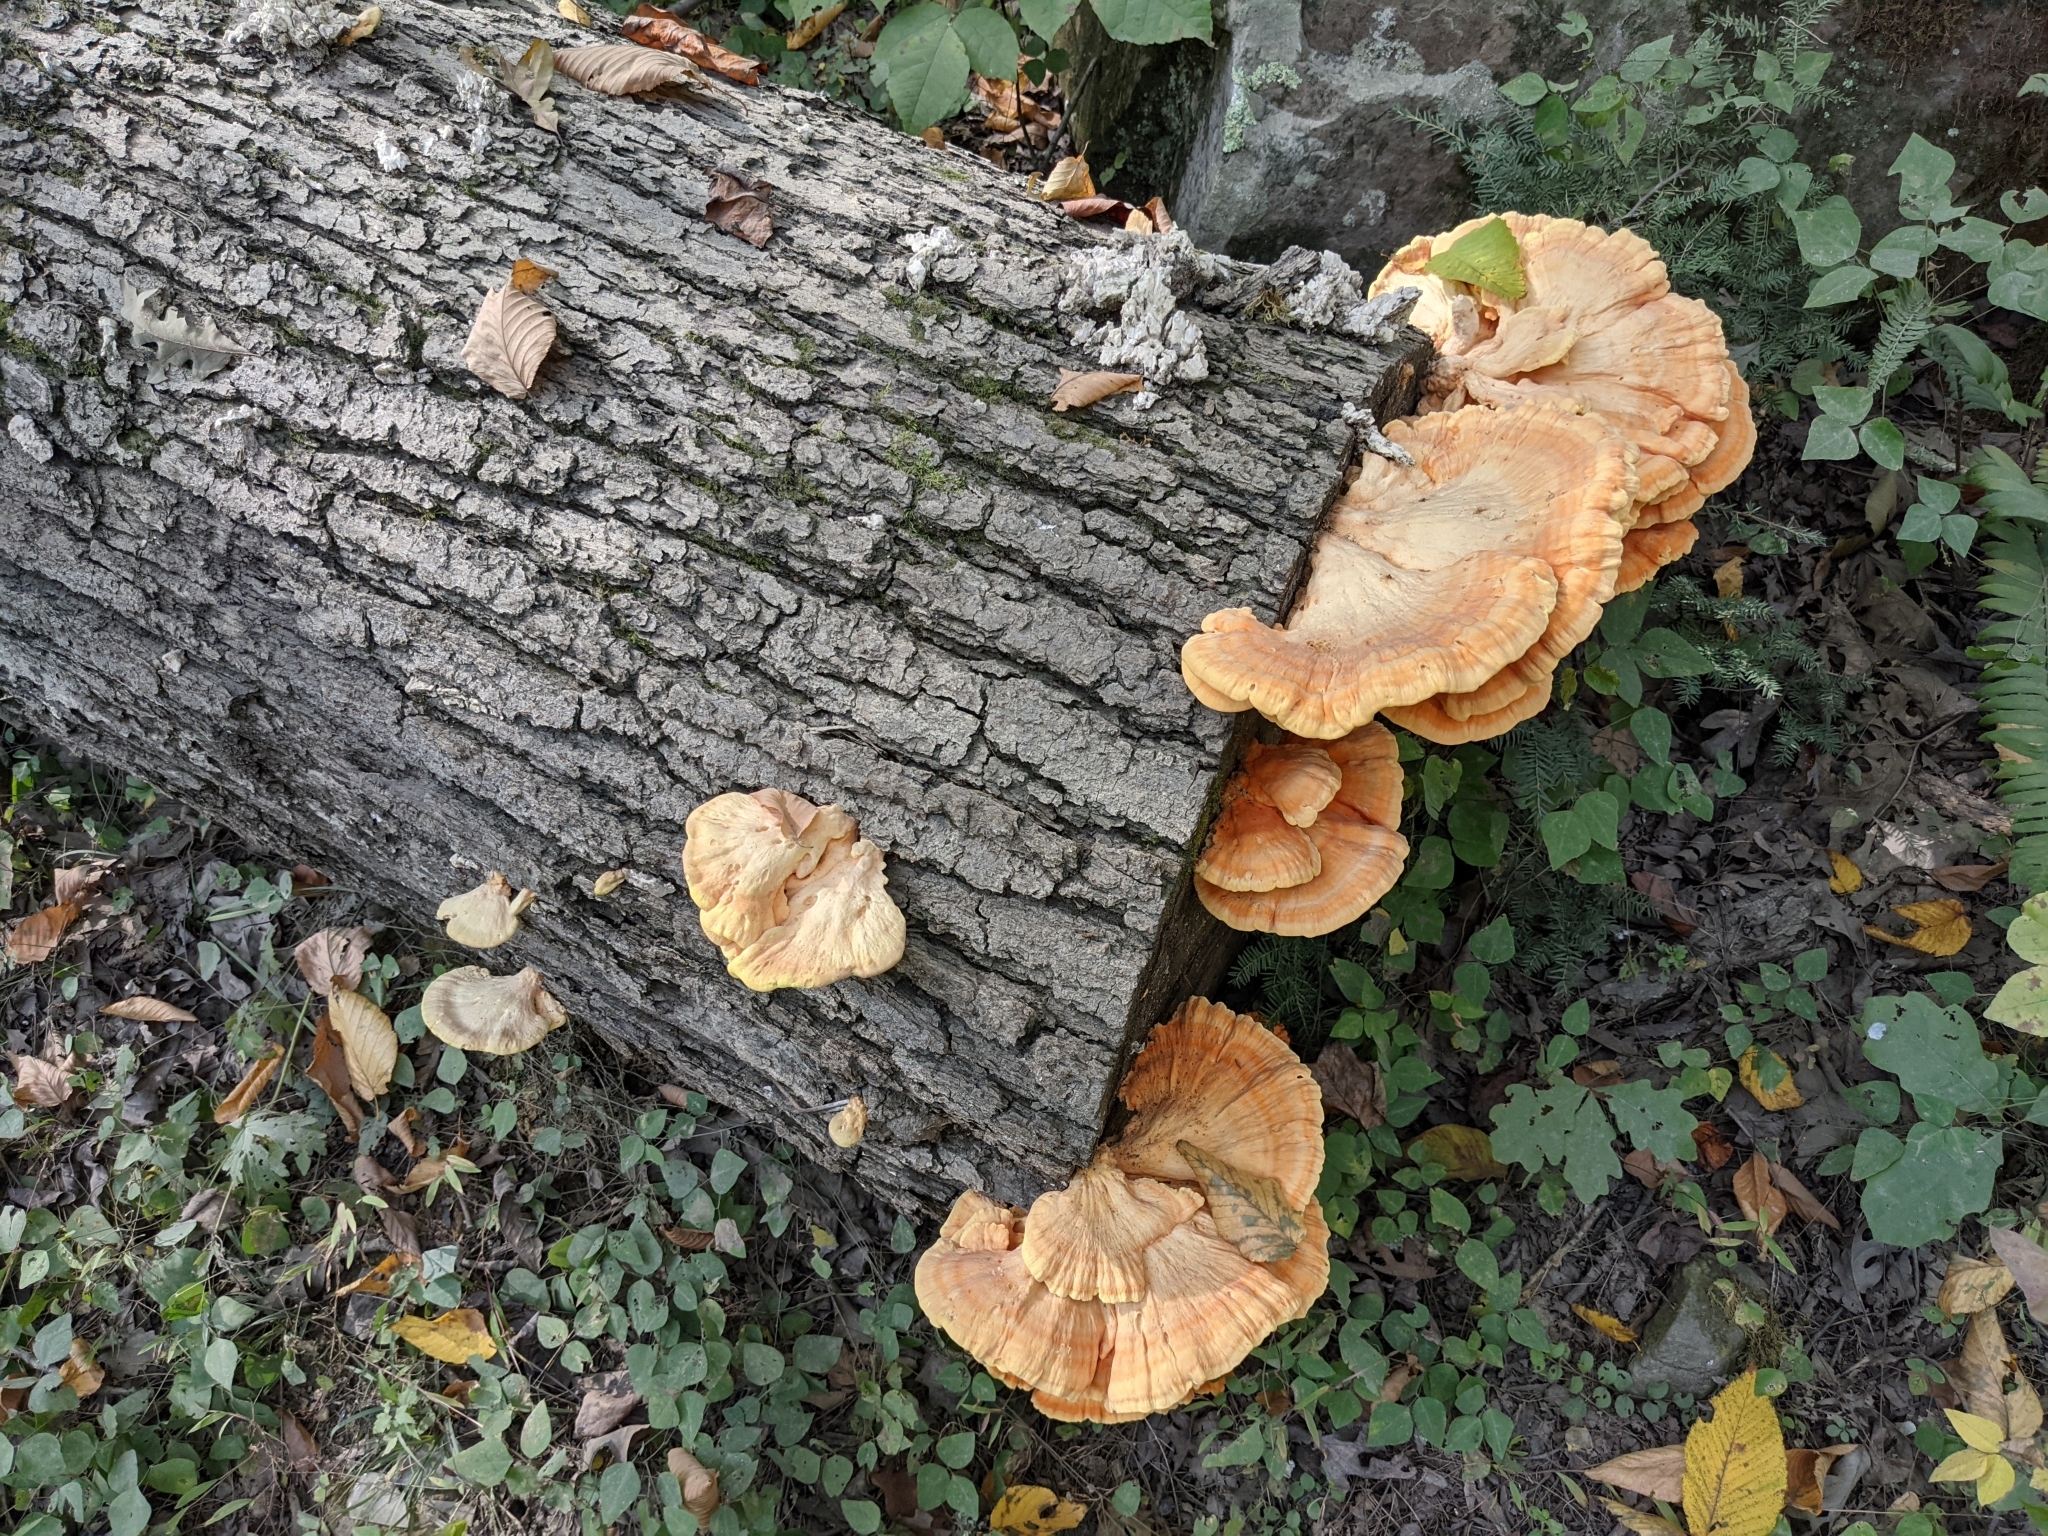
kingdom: Fungi
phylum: Basidiomycota
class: Agaricomycetes
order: Polyporales
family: Laetiporaceae
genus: Laetiporus
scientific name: Laetiporus sulphureus
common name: Chicken of the woods
